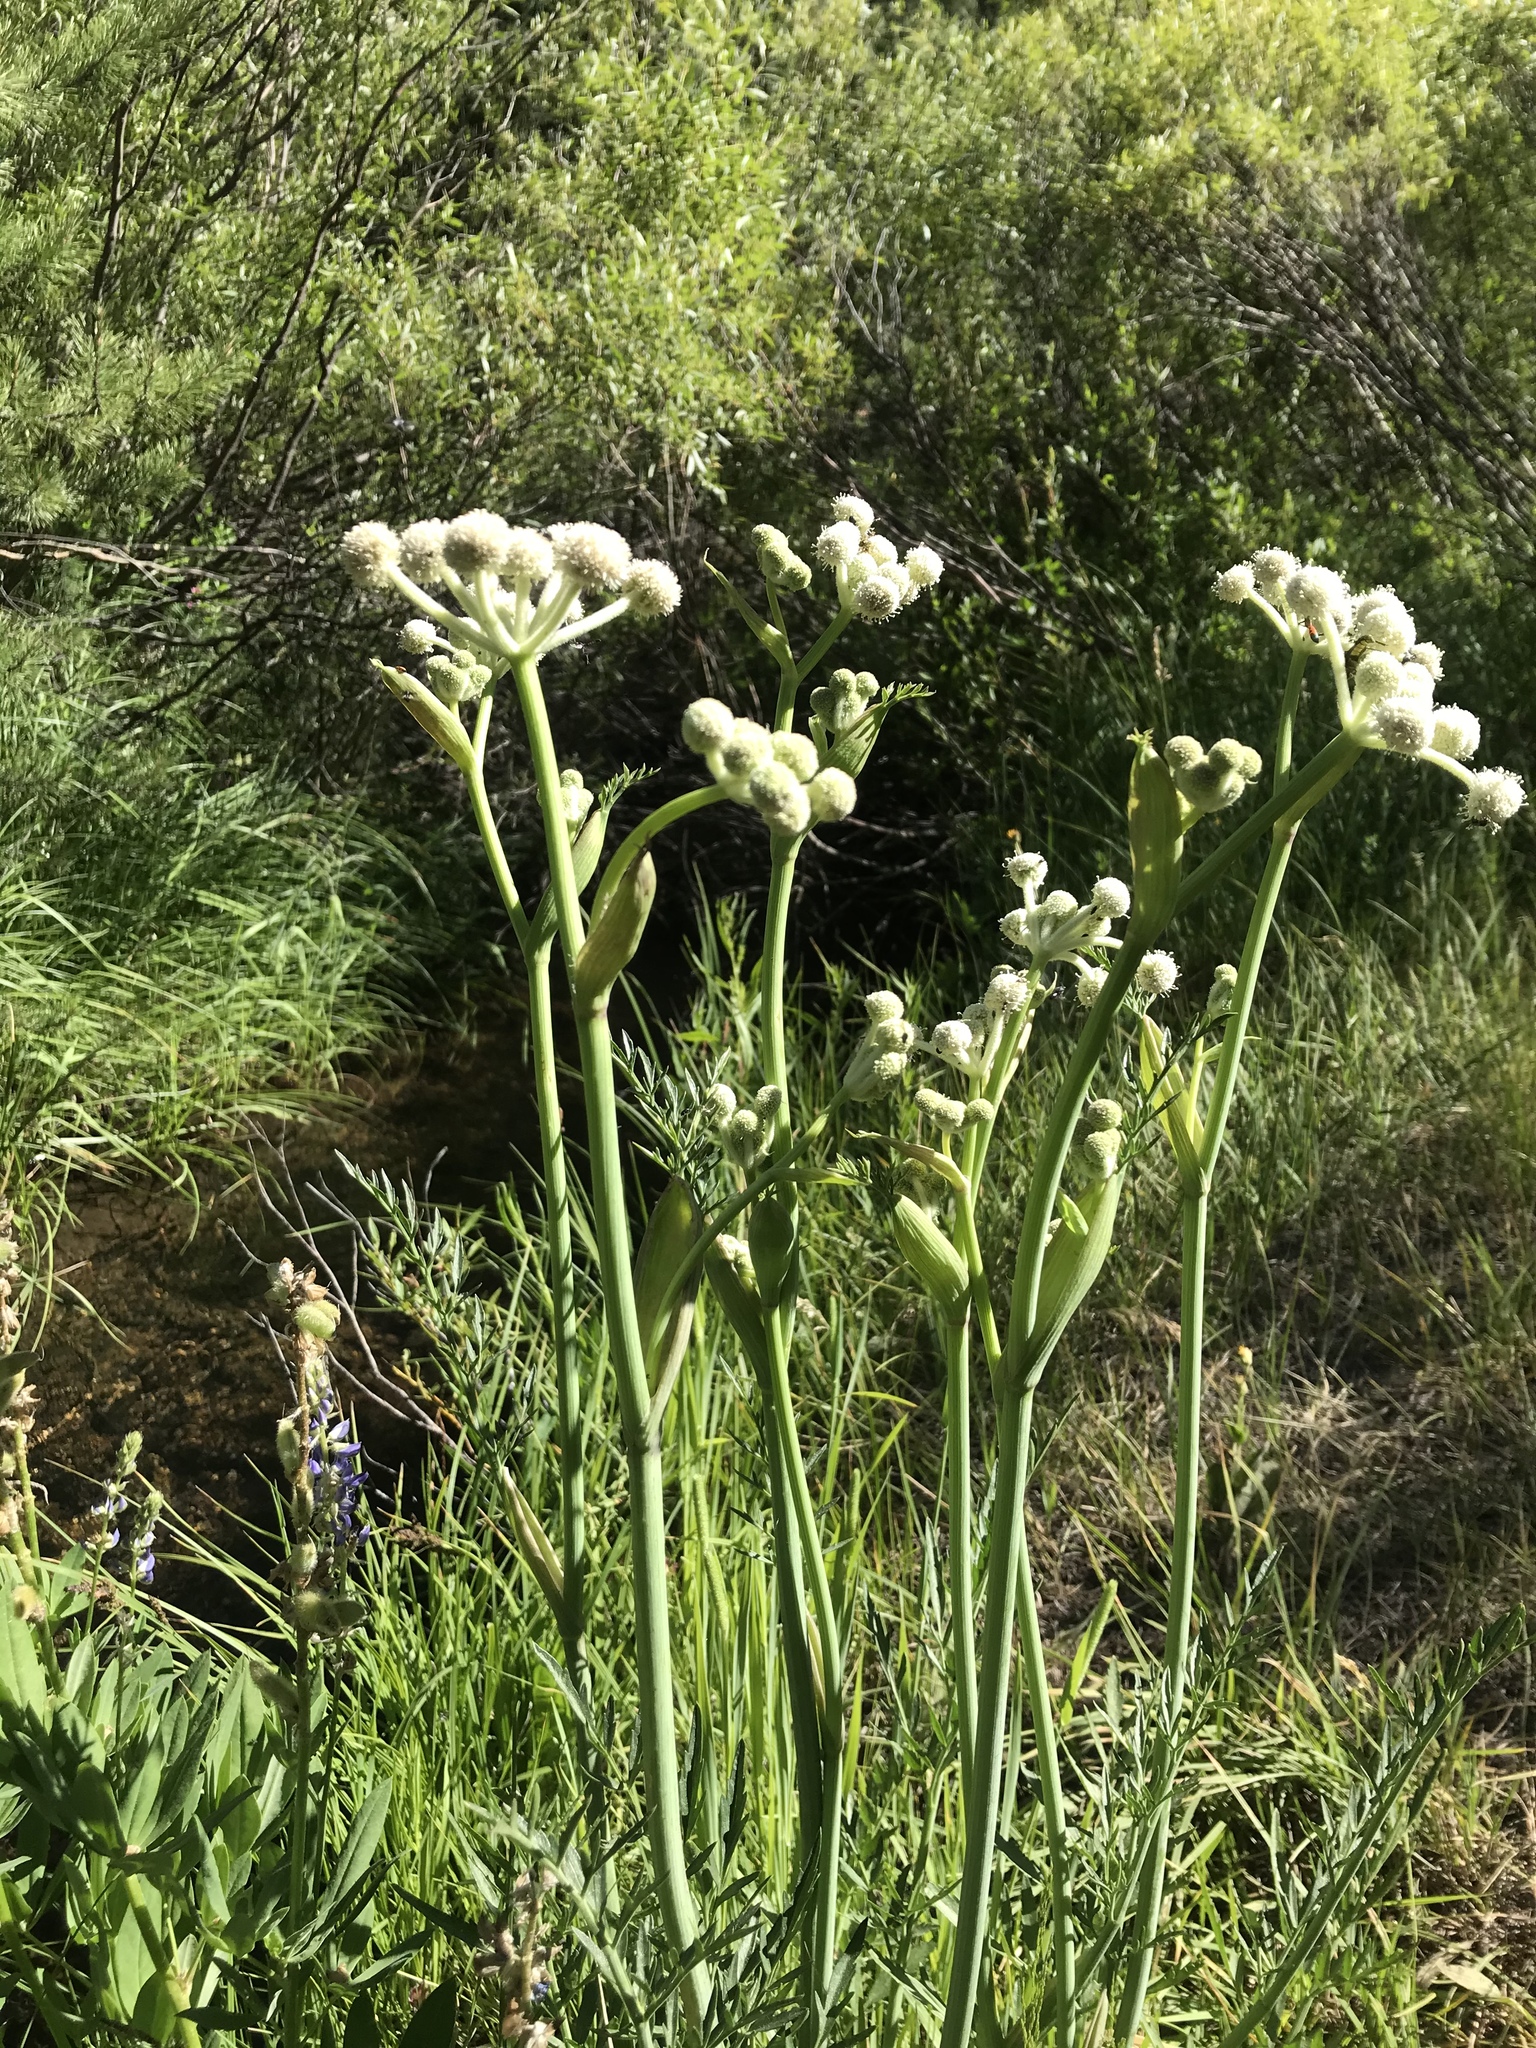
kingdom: Plantae
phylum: Tracheophyta
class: Magnoliopsida
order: Apiales
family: Apiaceae
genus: Angelica
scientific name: Angelica capitellata
